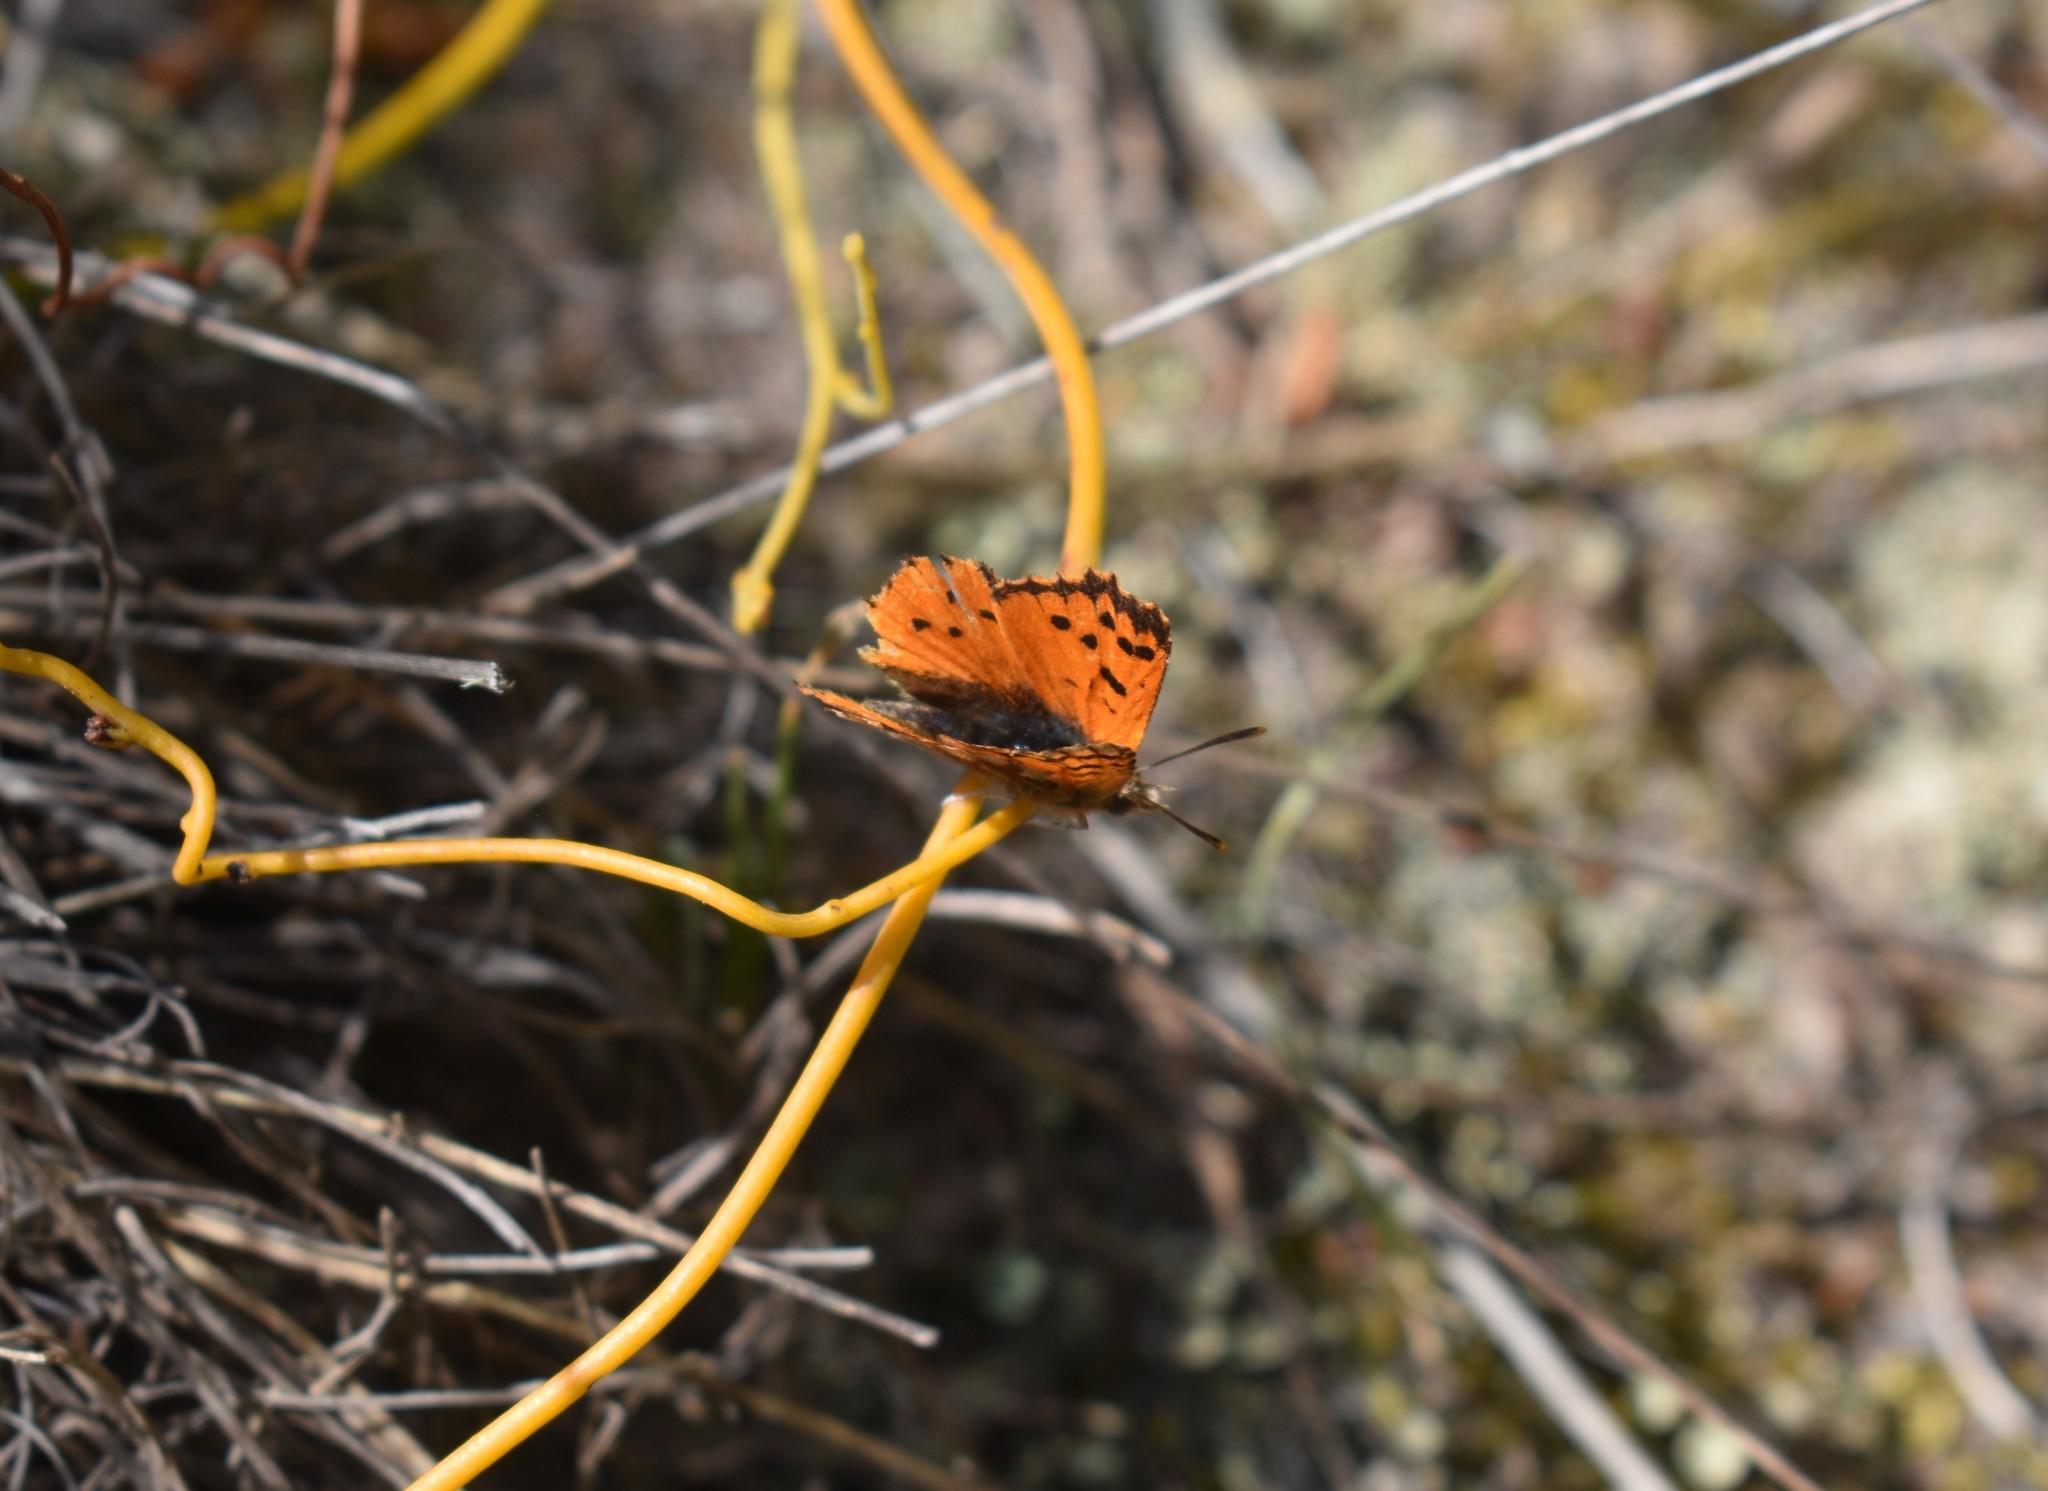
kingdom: Animalia
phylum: Arthropoda
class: Insecta
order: Lepidoptera
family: Lycaenidae
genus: Chrysoritis
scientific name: Chrysoritis
